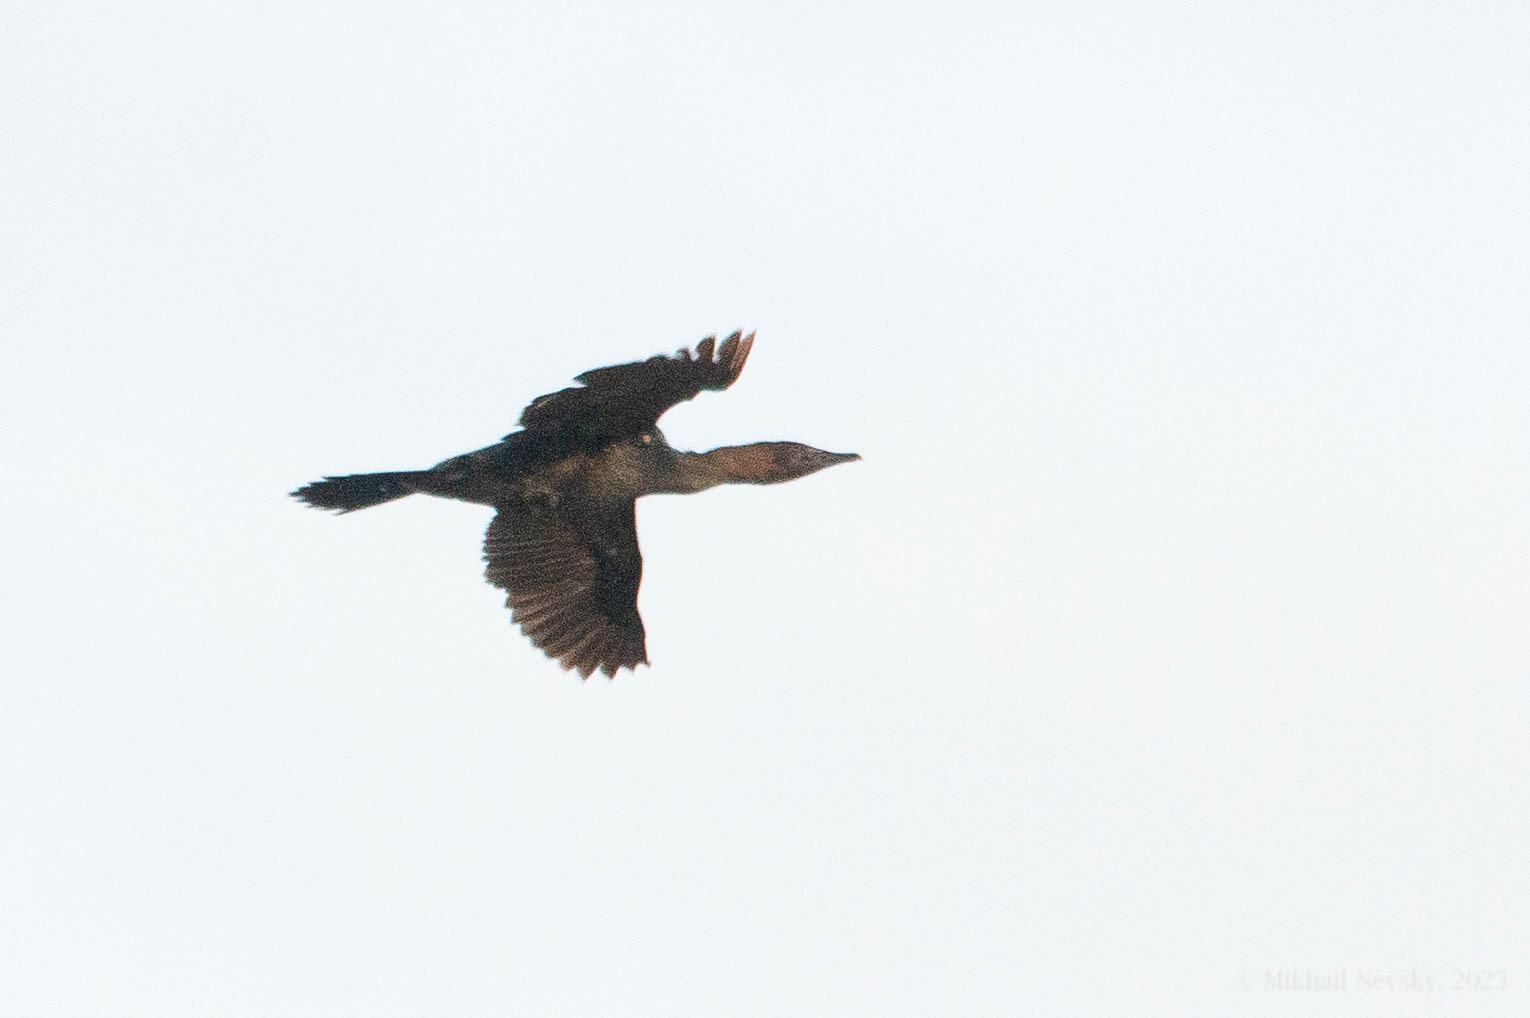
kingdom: Animalia
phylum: Chordata
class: Aves
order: Suliformes
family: Phalacrocoracidae
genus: Microcarbo
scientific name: Microcarbo pygmaeus
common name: Pygmy cormorant
